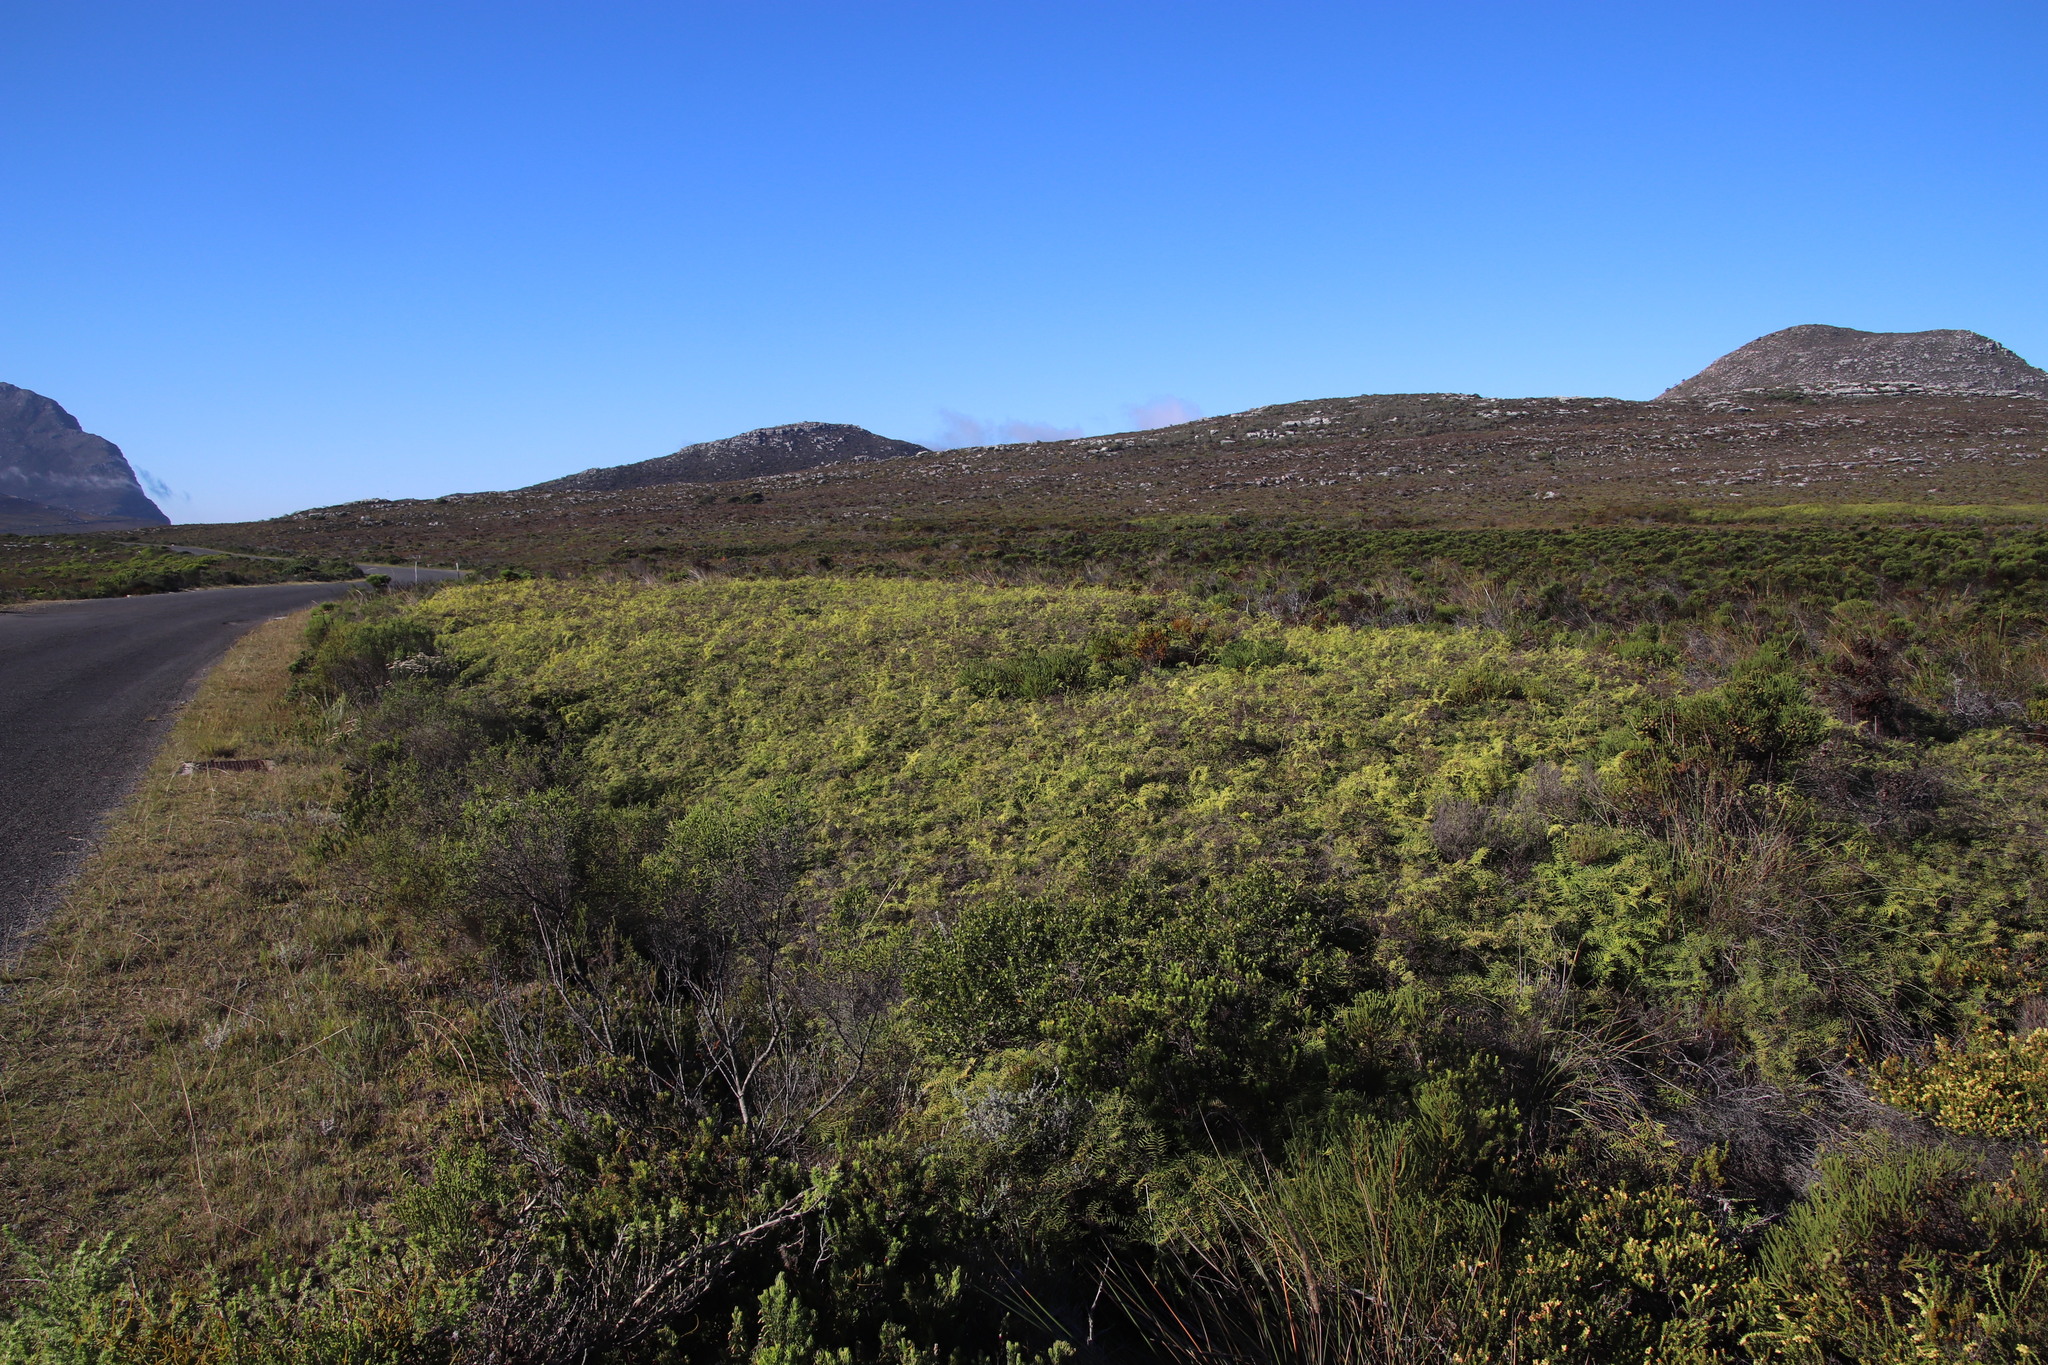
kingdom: Plantae
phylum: Tracheophyta
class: Polypodiopsida
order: Gleicheniales
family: Gleicheniaceae
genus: Gleichenia
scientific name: Gleichenia polypodioides
